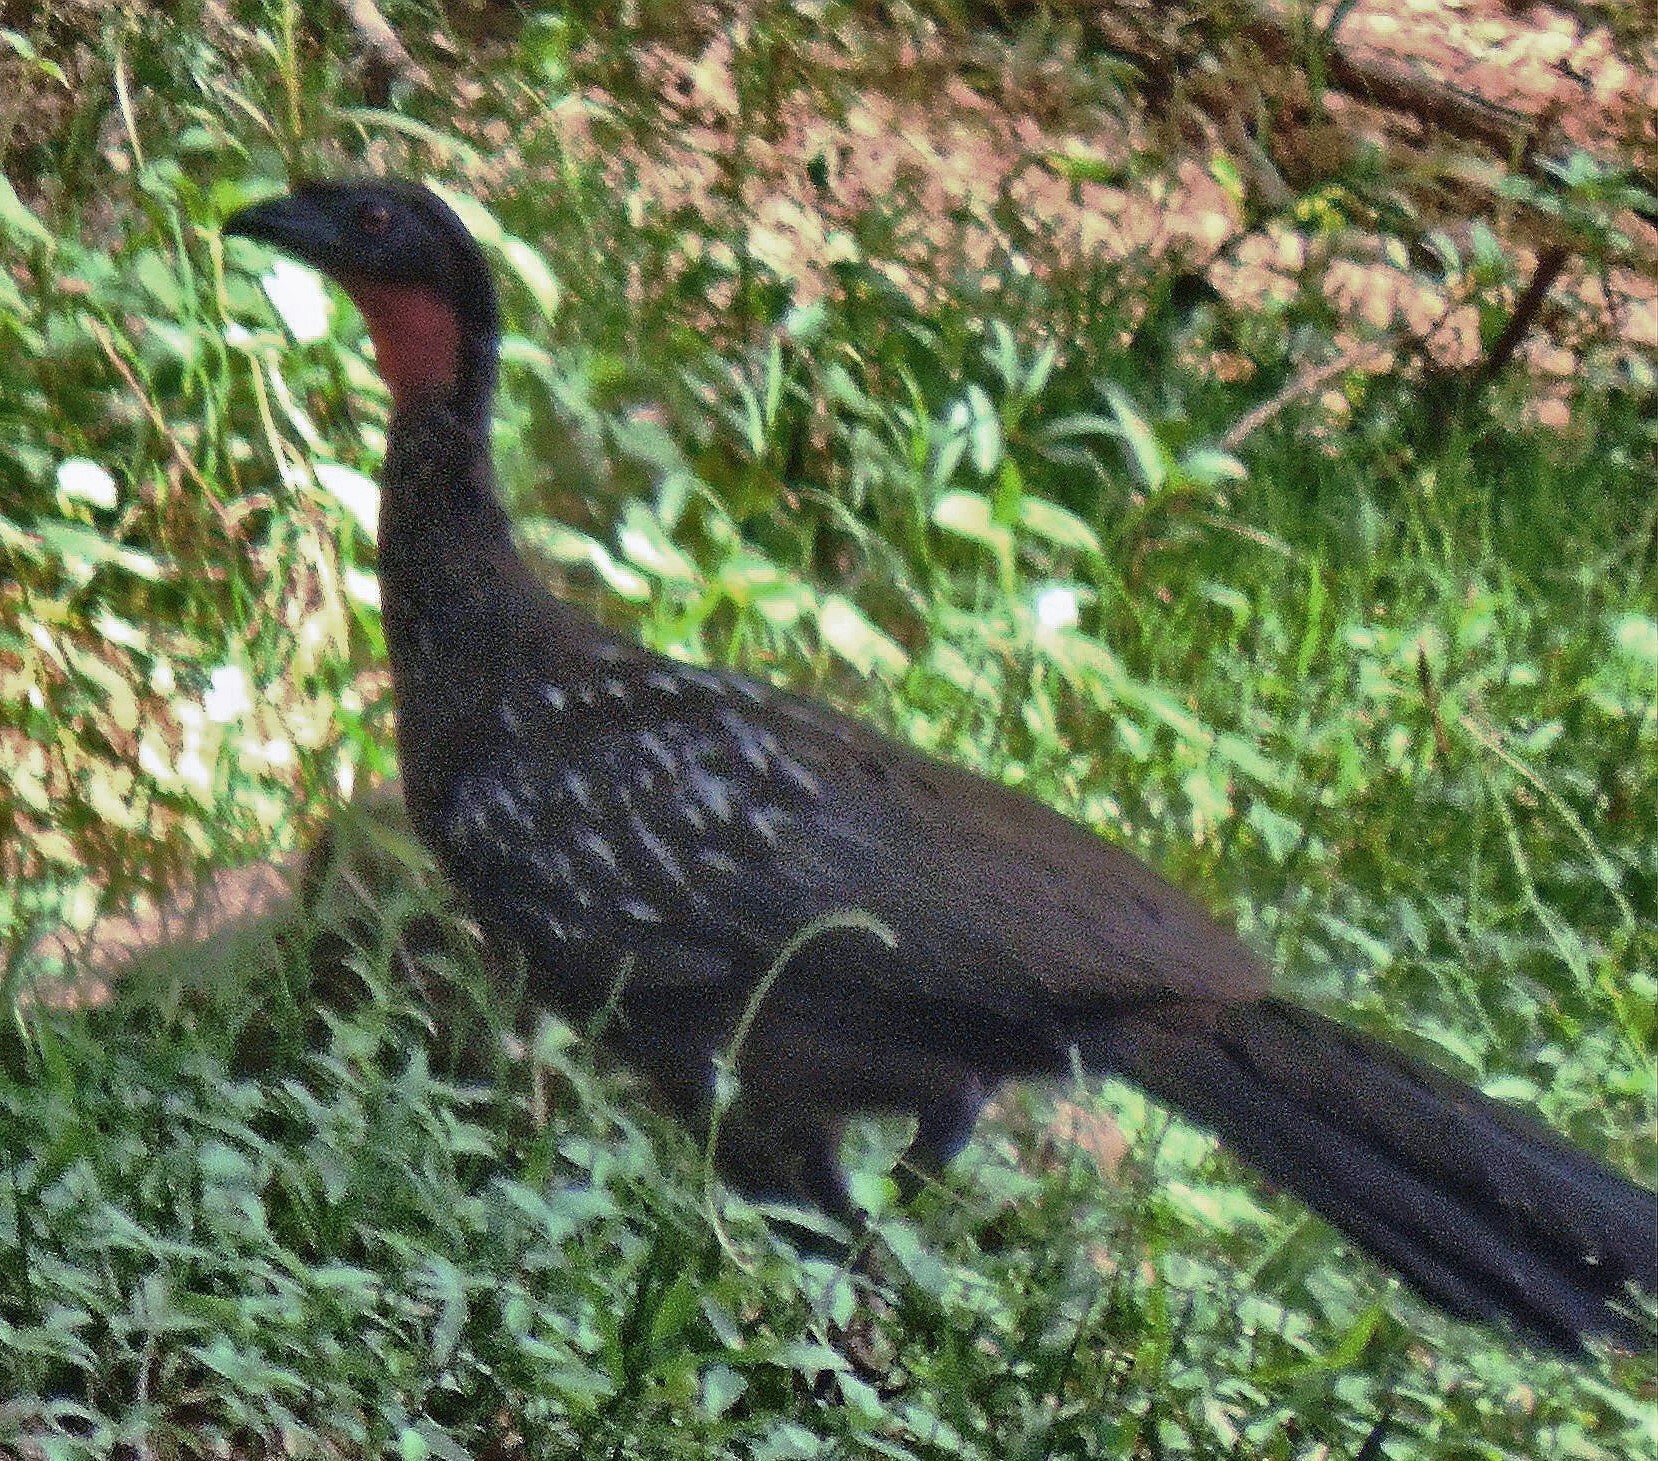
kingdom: Animalia
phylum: Chordata
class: Aves
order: Galliformes
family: Cracidae
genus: Penelope
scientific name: Penelope bridgesi
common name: Yungas guan
